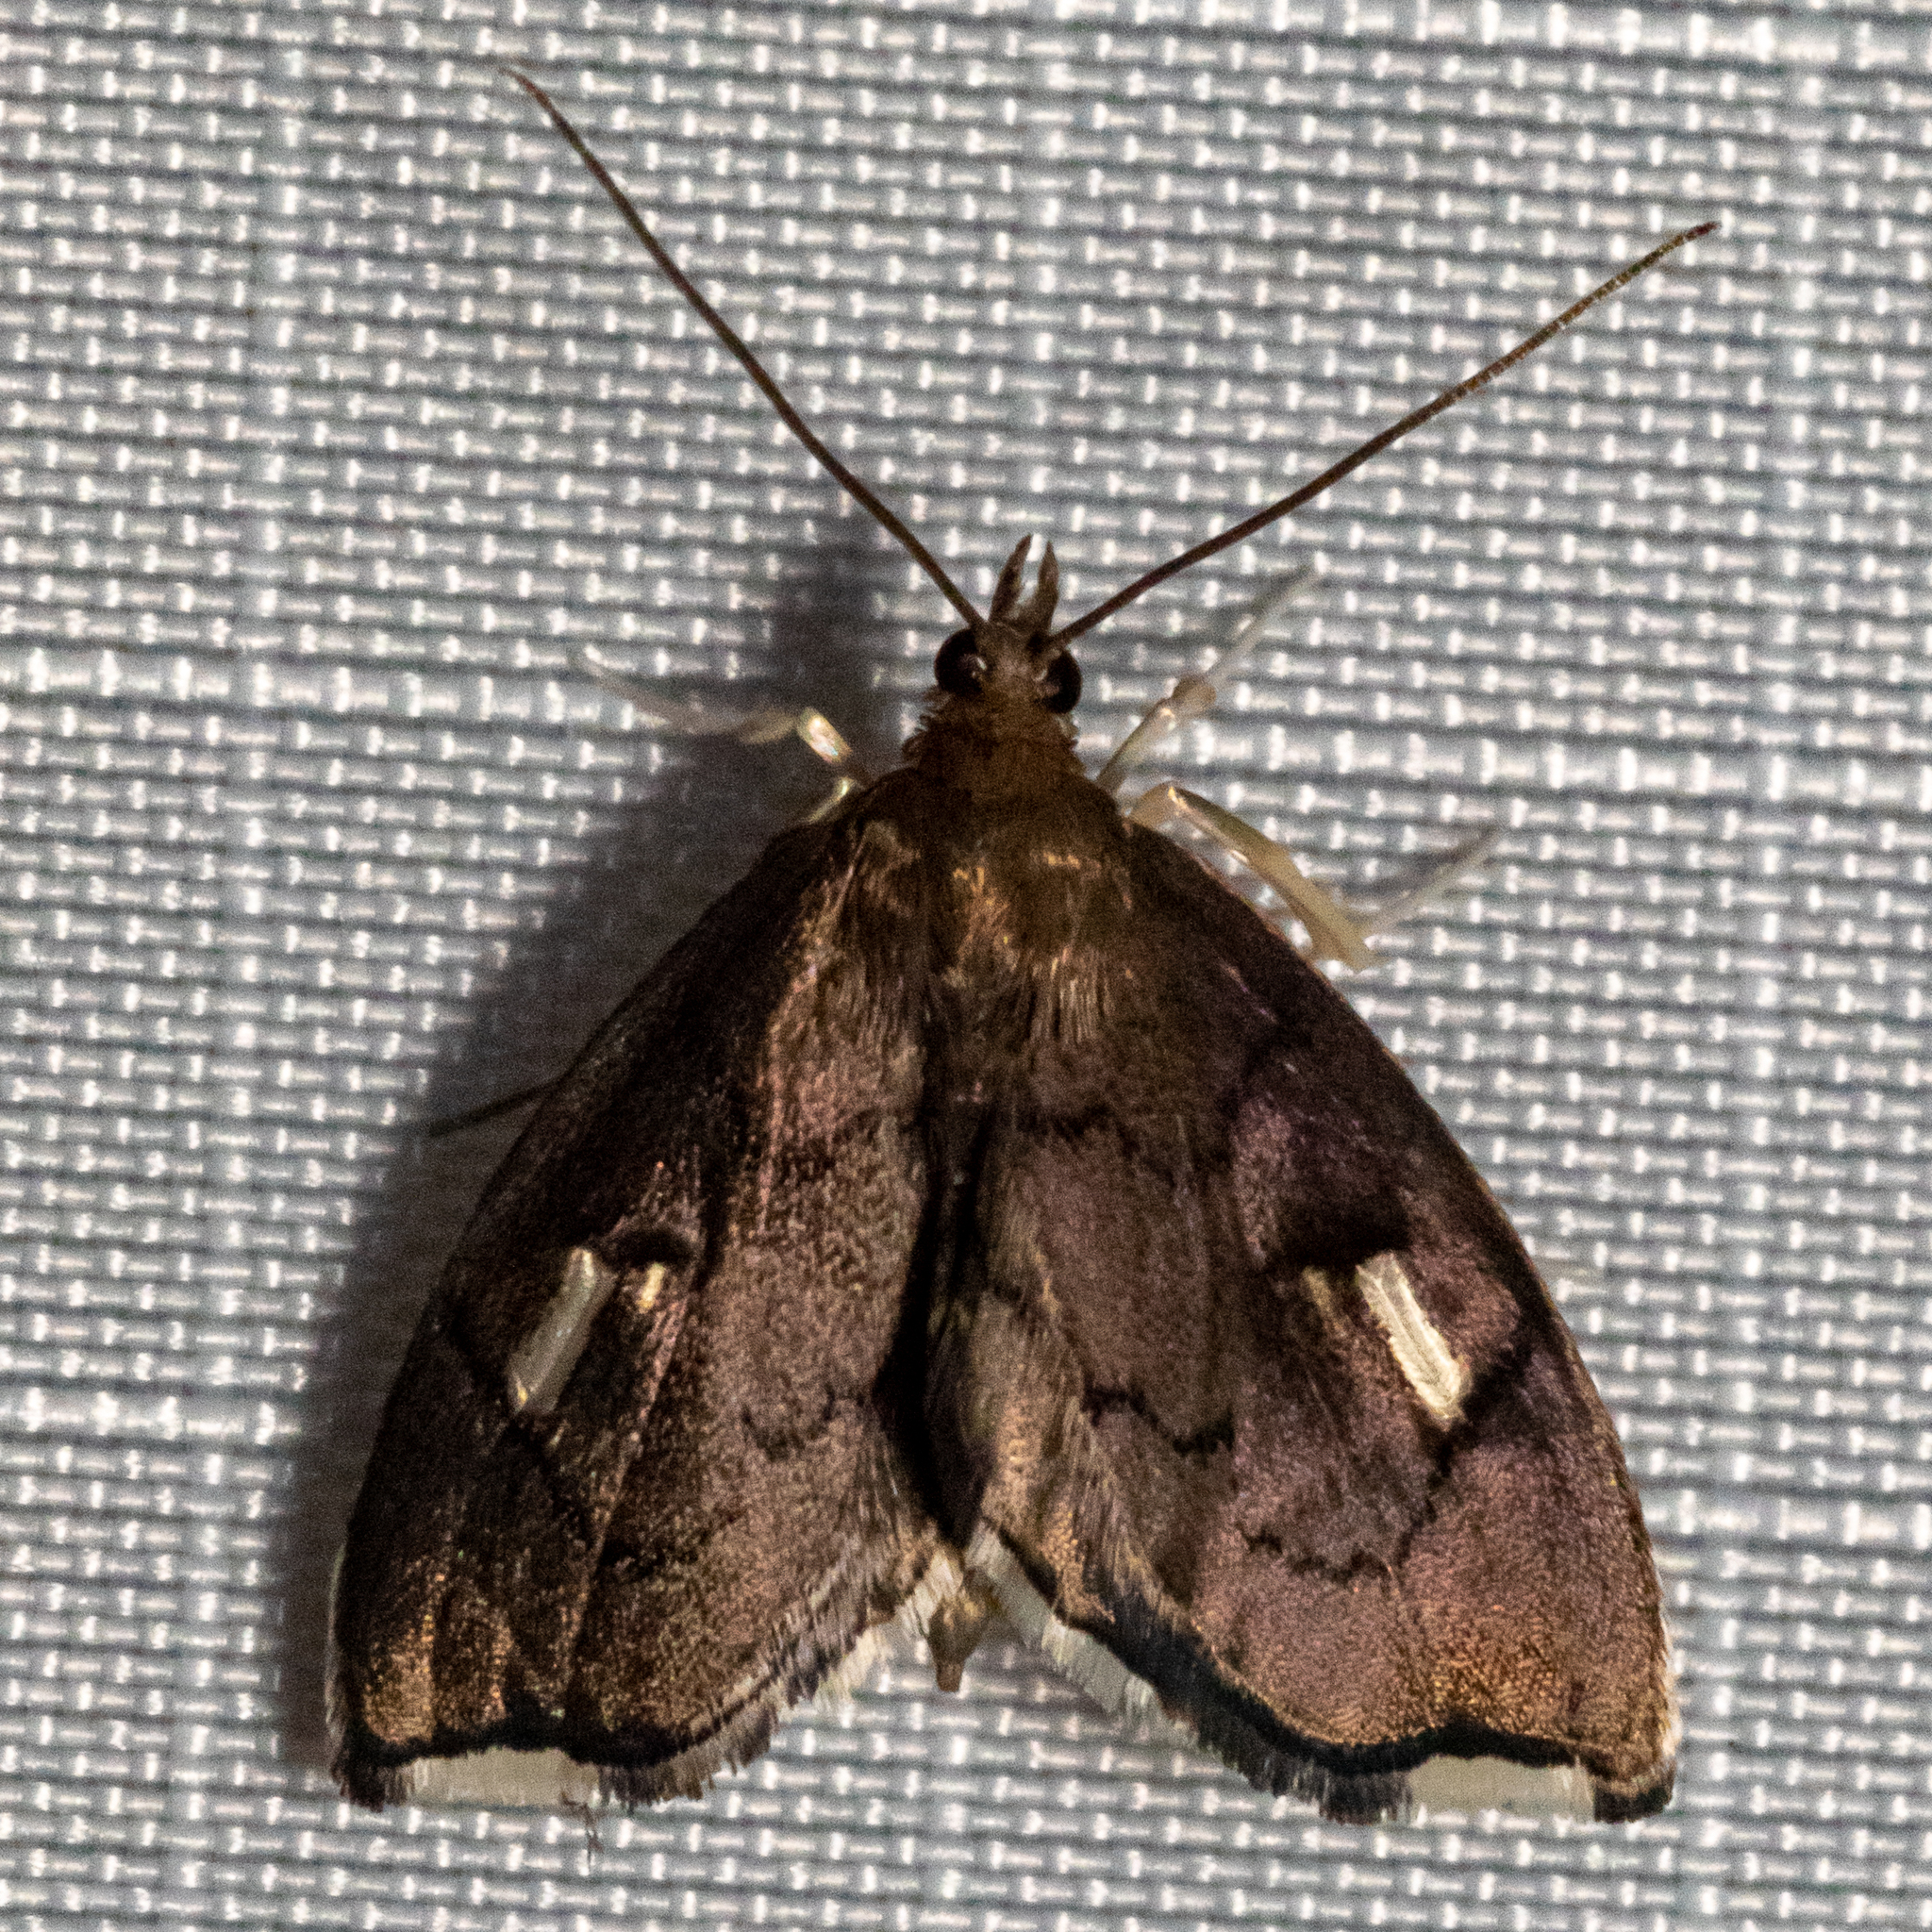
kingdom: Animalia
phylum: Arthropoda
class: Insecta
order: Lepidoptera
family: Crambidae
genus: Perispasta
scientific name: Perispasta caeculalis
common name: Titian peale's moth
